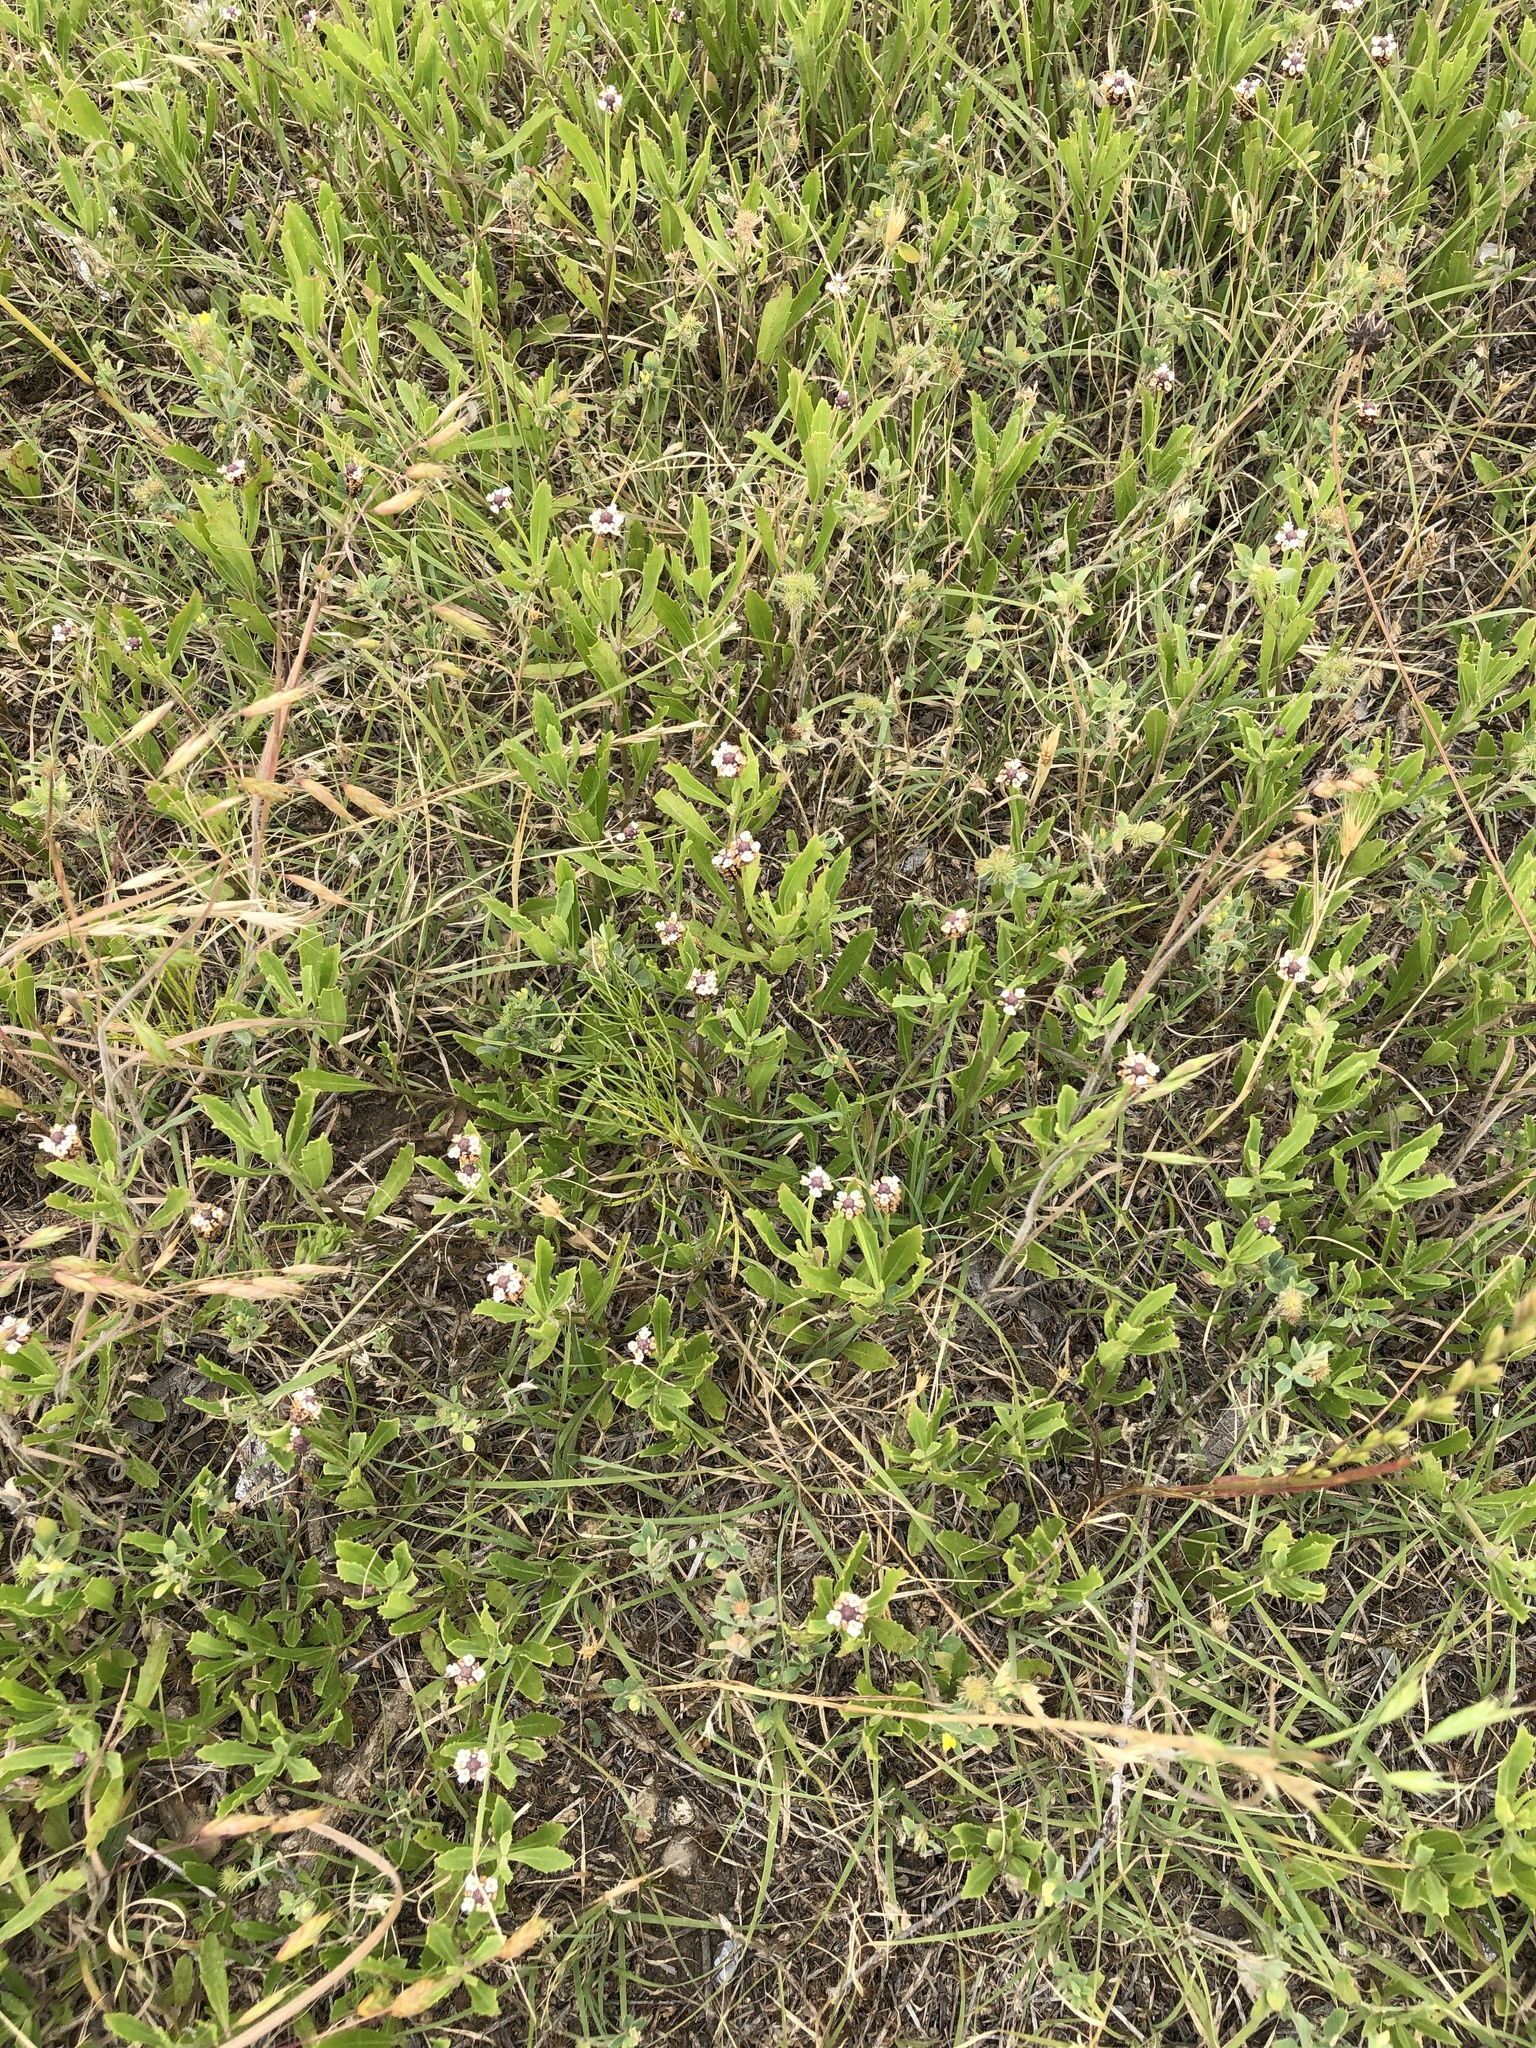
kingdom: Plantae
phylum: Tracheophyta
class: Magnoliopsida
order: Lamiales
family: Verbenaceae
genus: Phyla
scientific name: Phyla nodiflora
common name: Frogfruit
